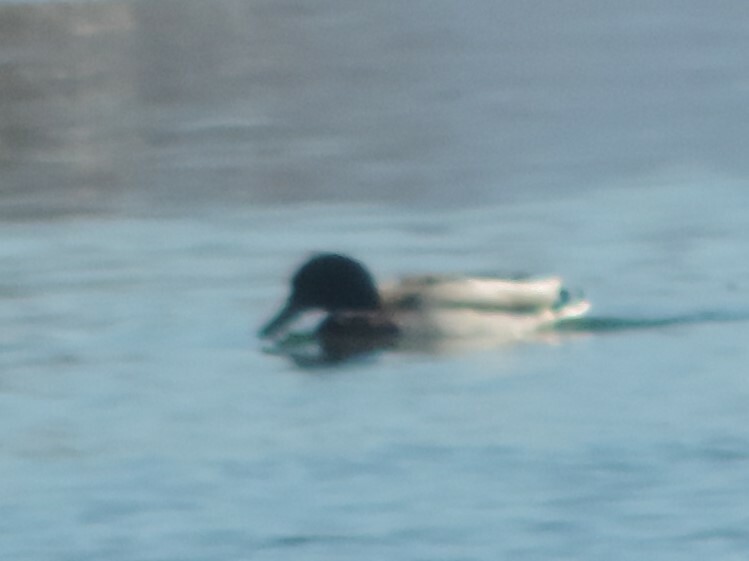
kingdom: Animalia
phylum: Chordata
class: Aves
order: Anseriformes
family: Anatidae
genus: Anas
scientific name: Anas platyrhynchos
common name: Mallard
